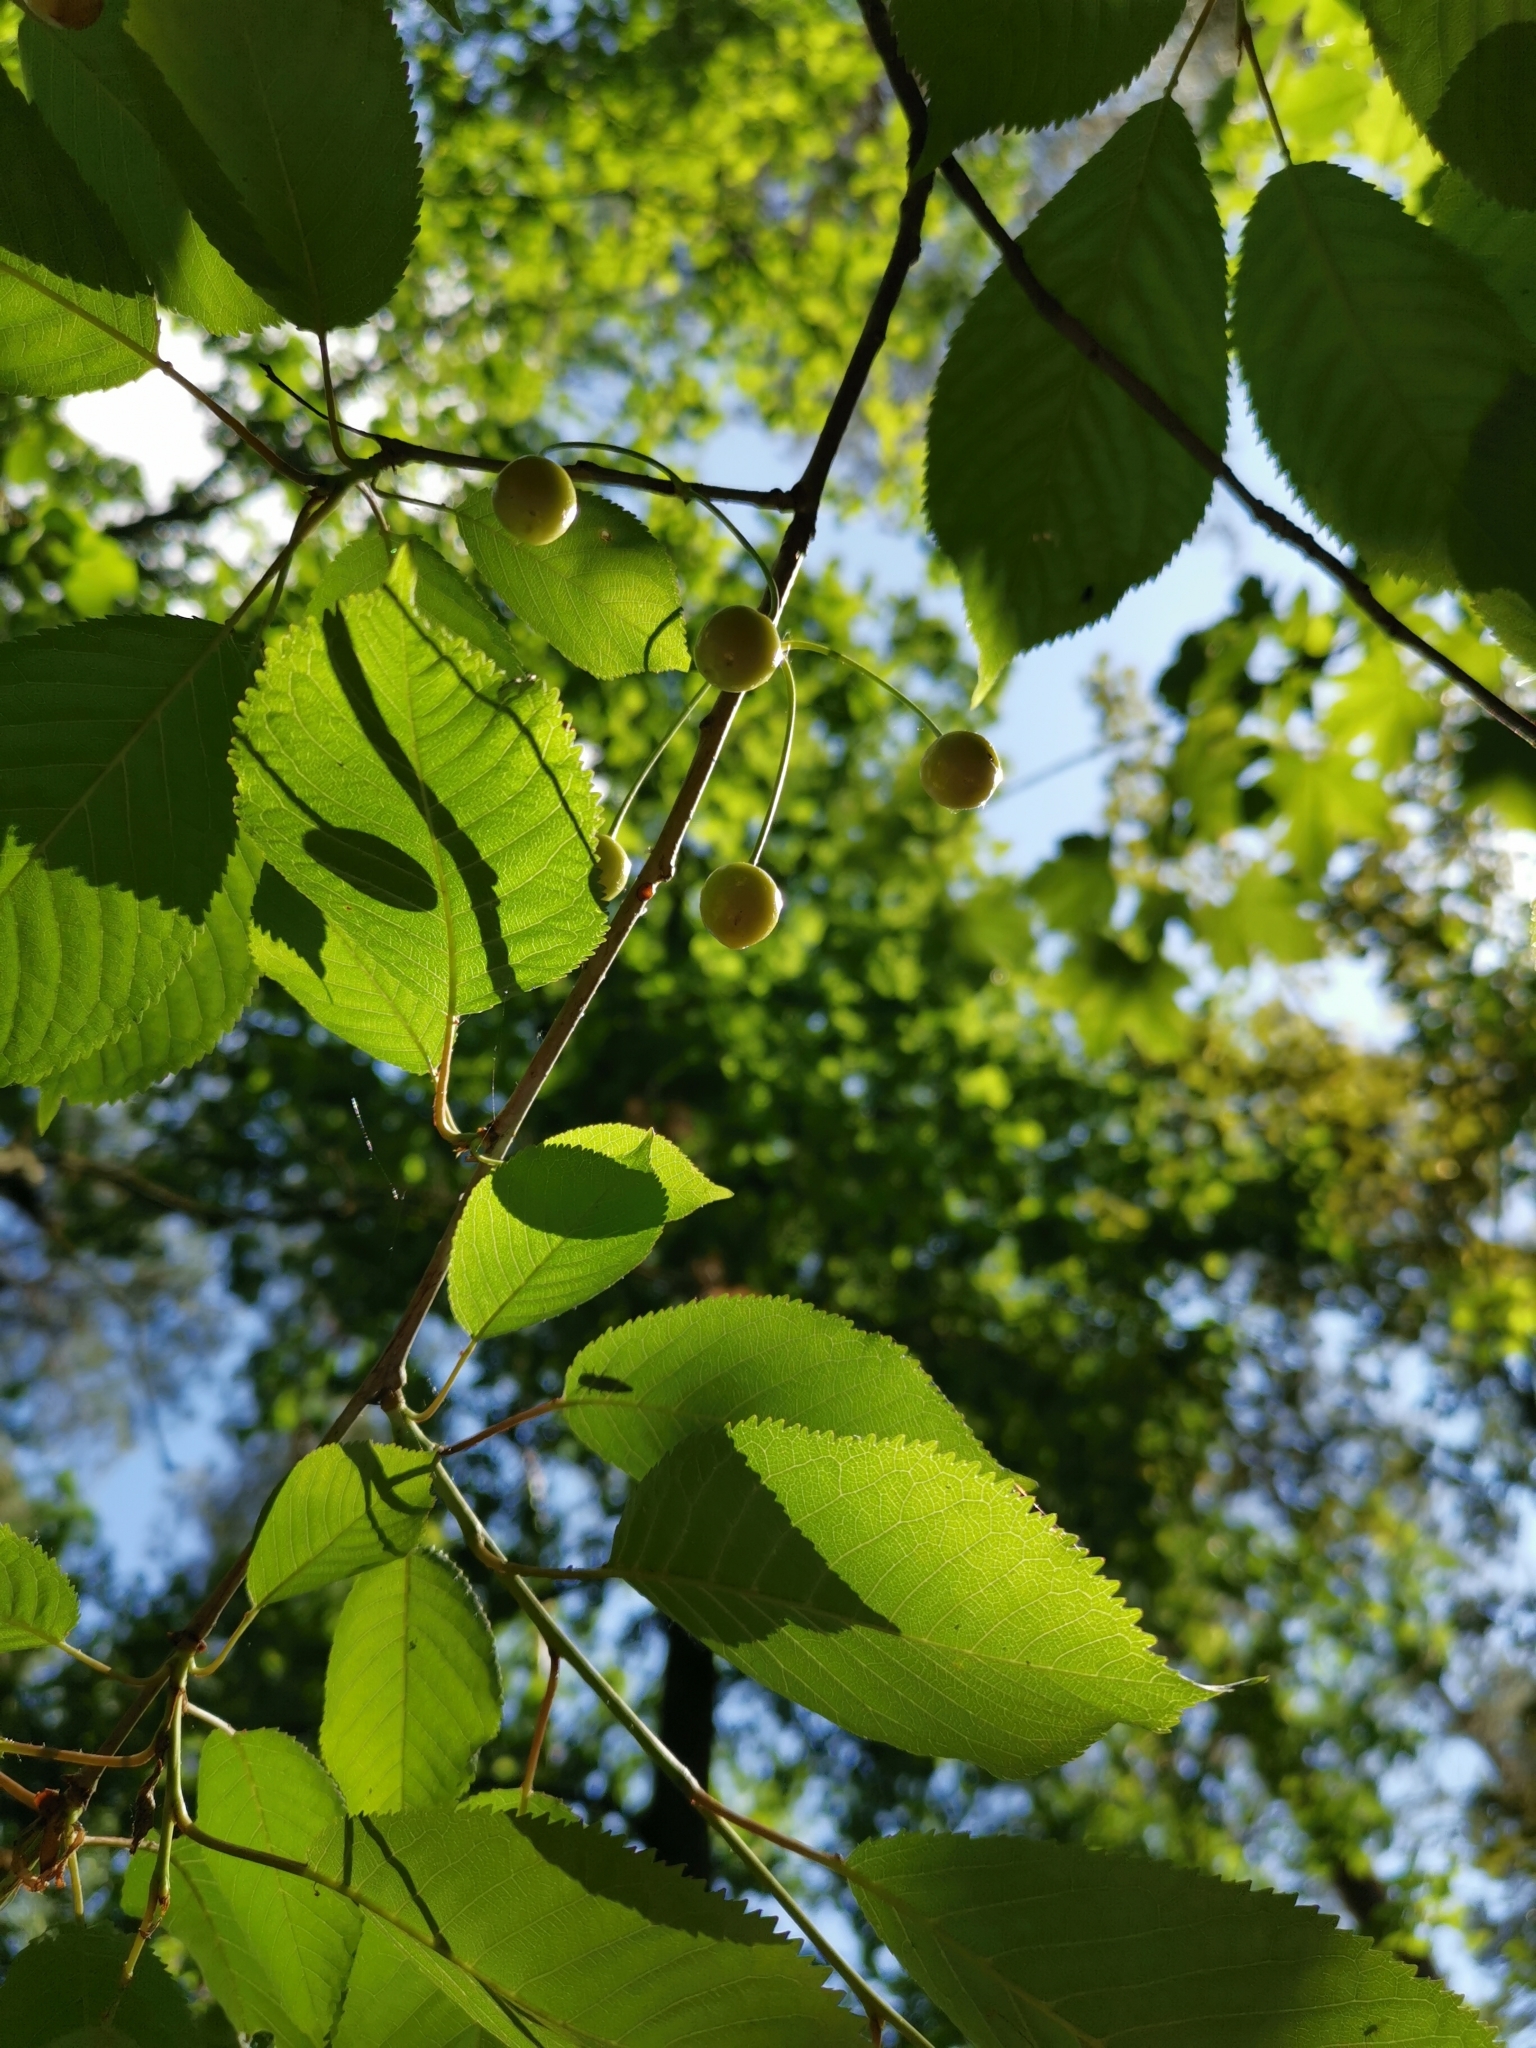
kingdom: Plantae
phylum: Tracheophyta
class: Magnoliopsida
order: Rosales
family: Rosaceae
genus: Prunus
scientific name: Prunus avium
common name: Sweet cherry
